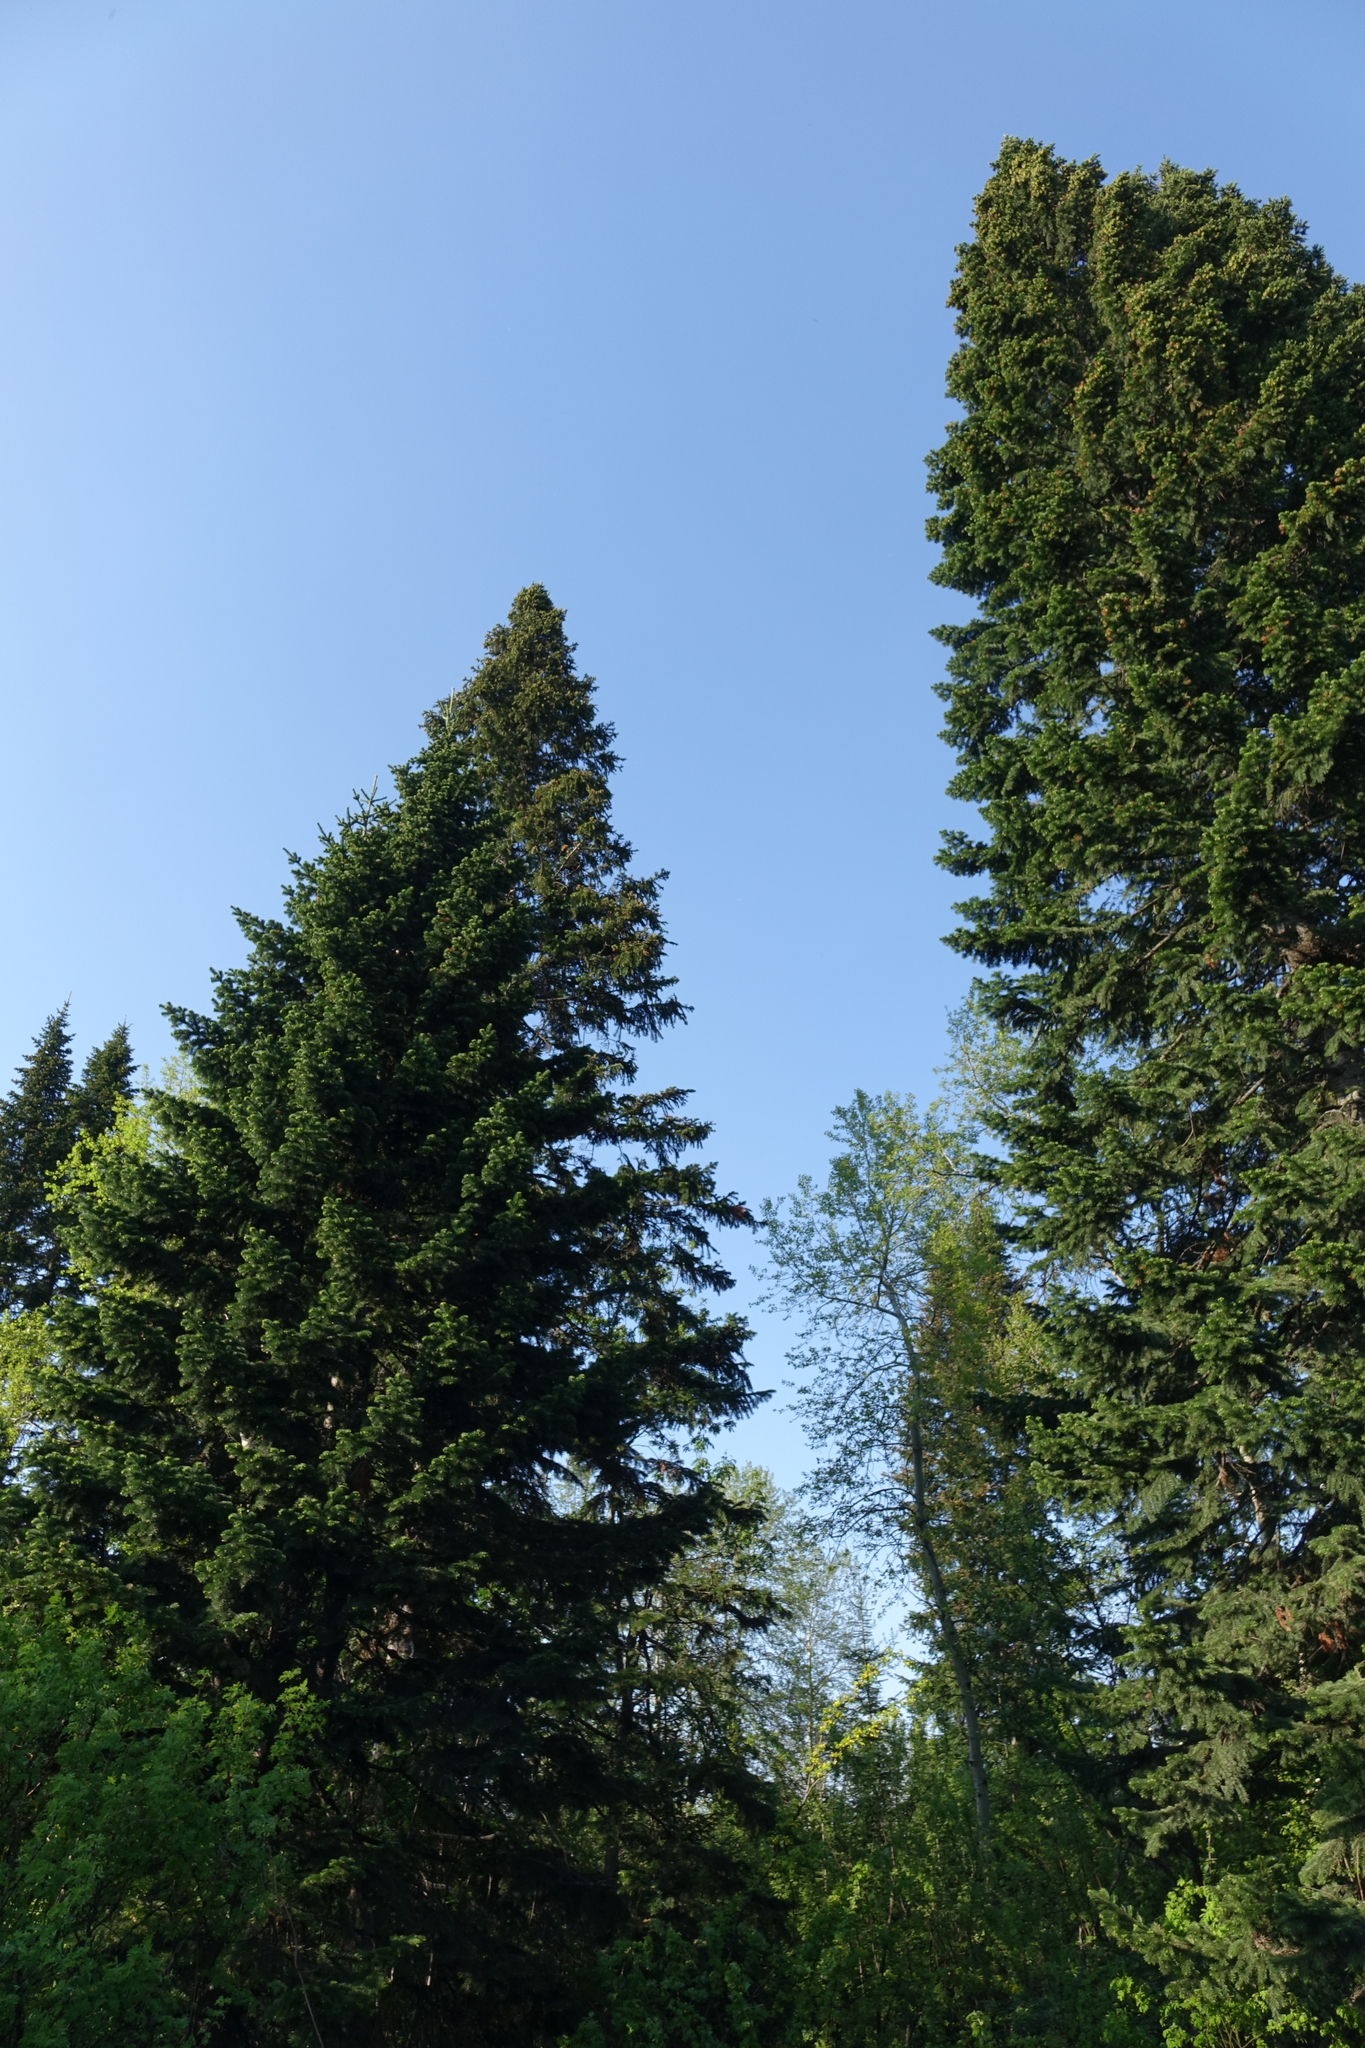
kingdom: Plantae
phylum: Tracheophyta
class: Pinopsida
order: Pinales
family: Pinaceae
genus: Abies
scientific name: Abies sibirica
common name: Siberian fir
